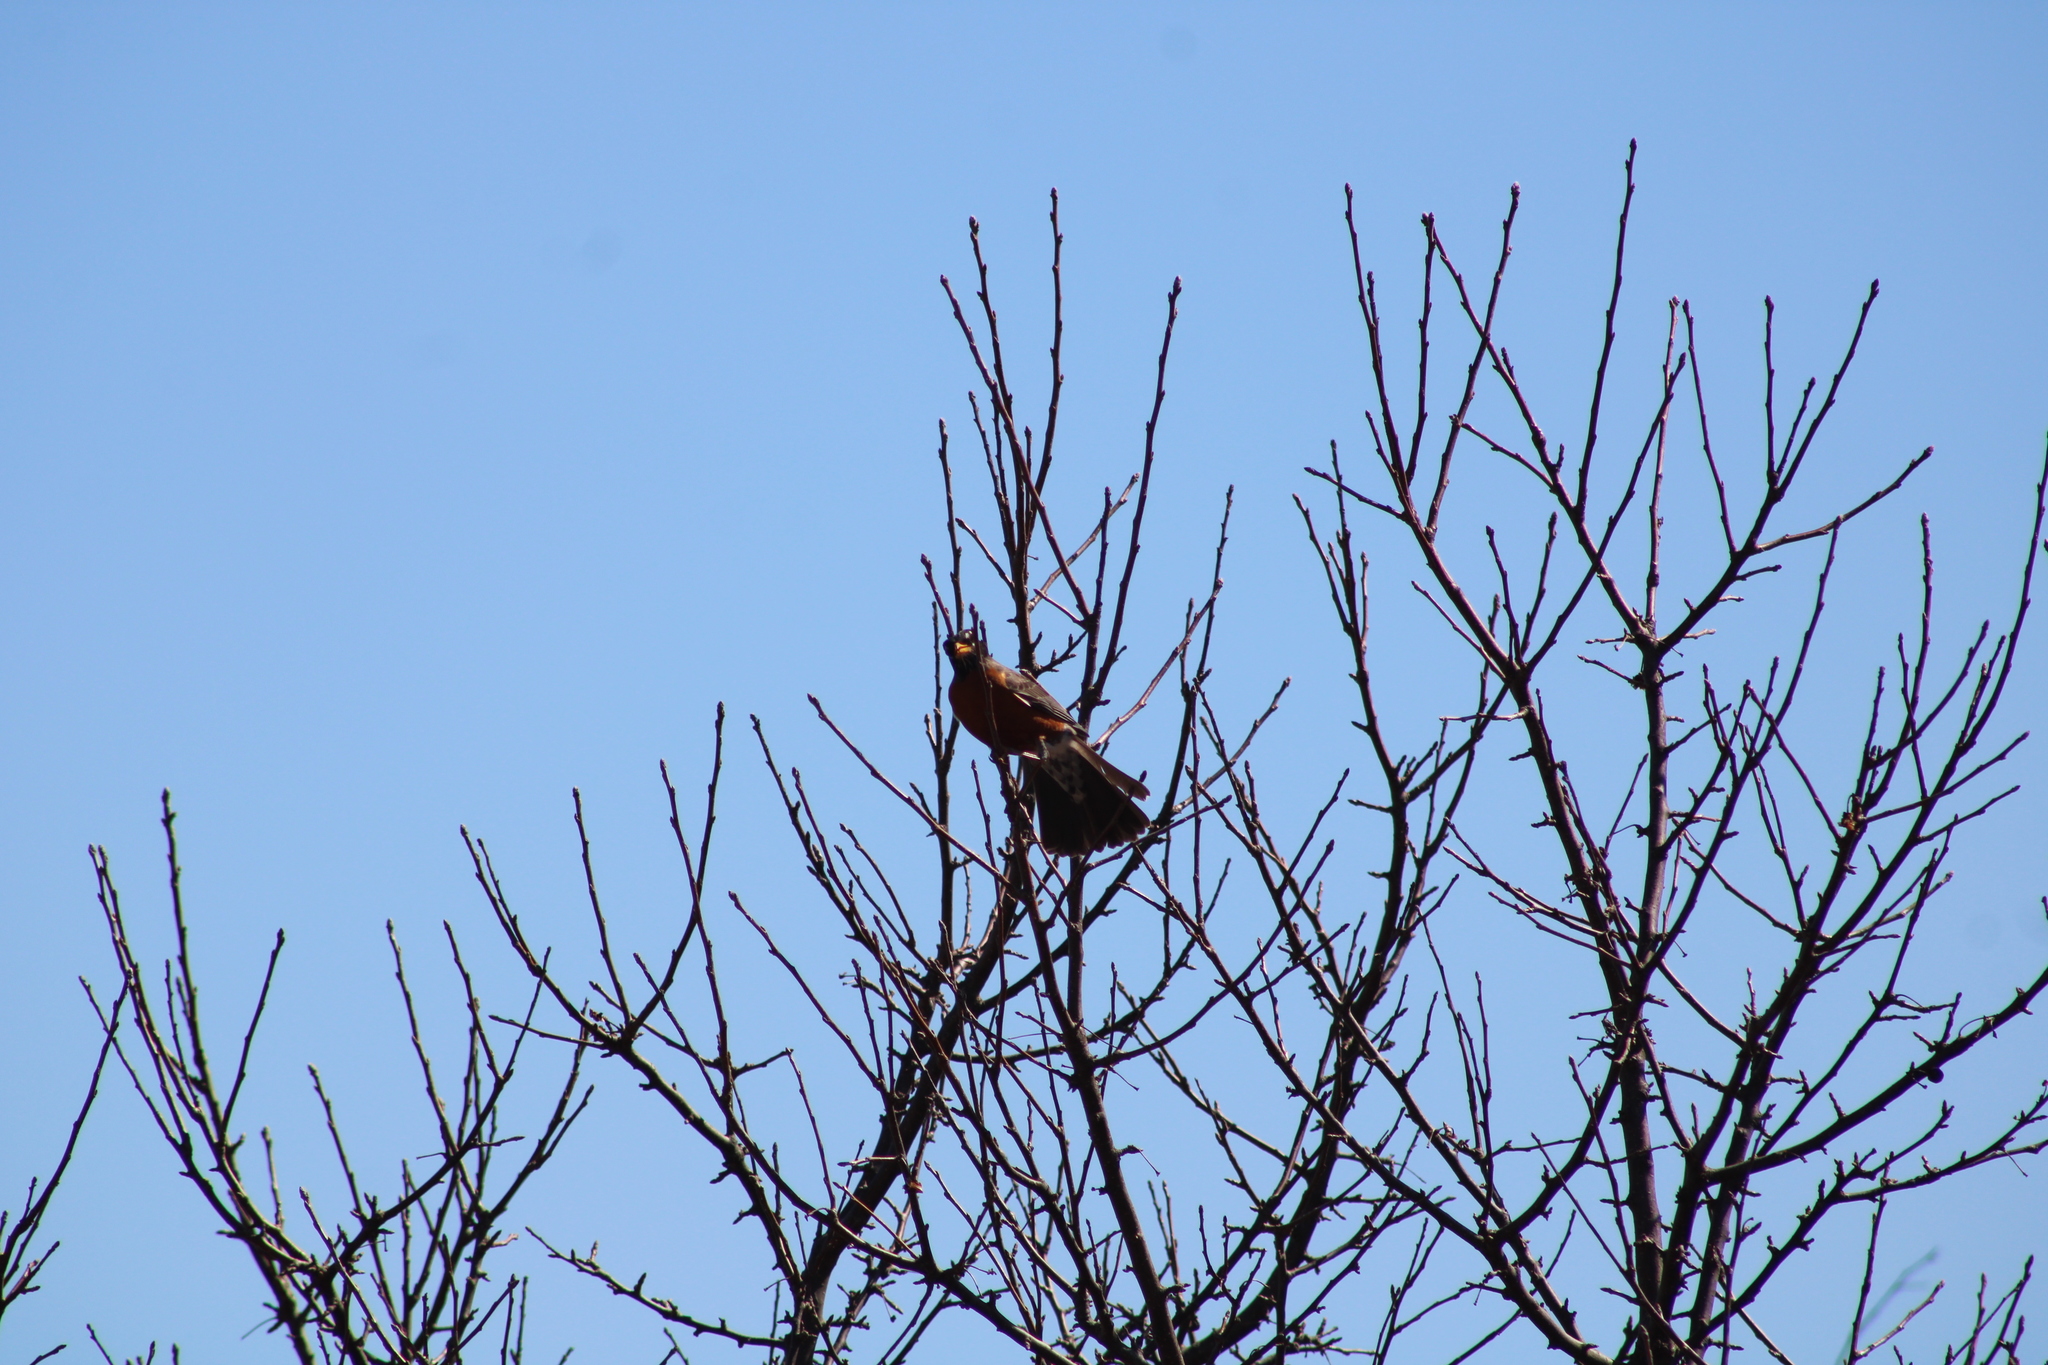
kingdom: Animalia
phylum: Chordata
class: Aves
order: Passeriformes
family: Turdidae
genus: Turdus
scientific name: Turdus migratorius
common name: American robin
